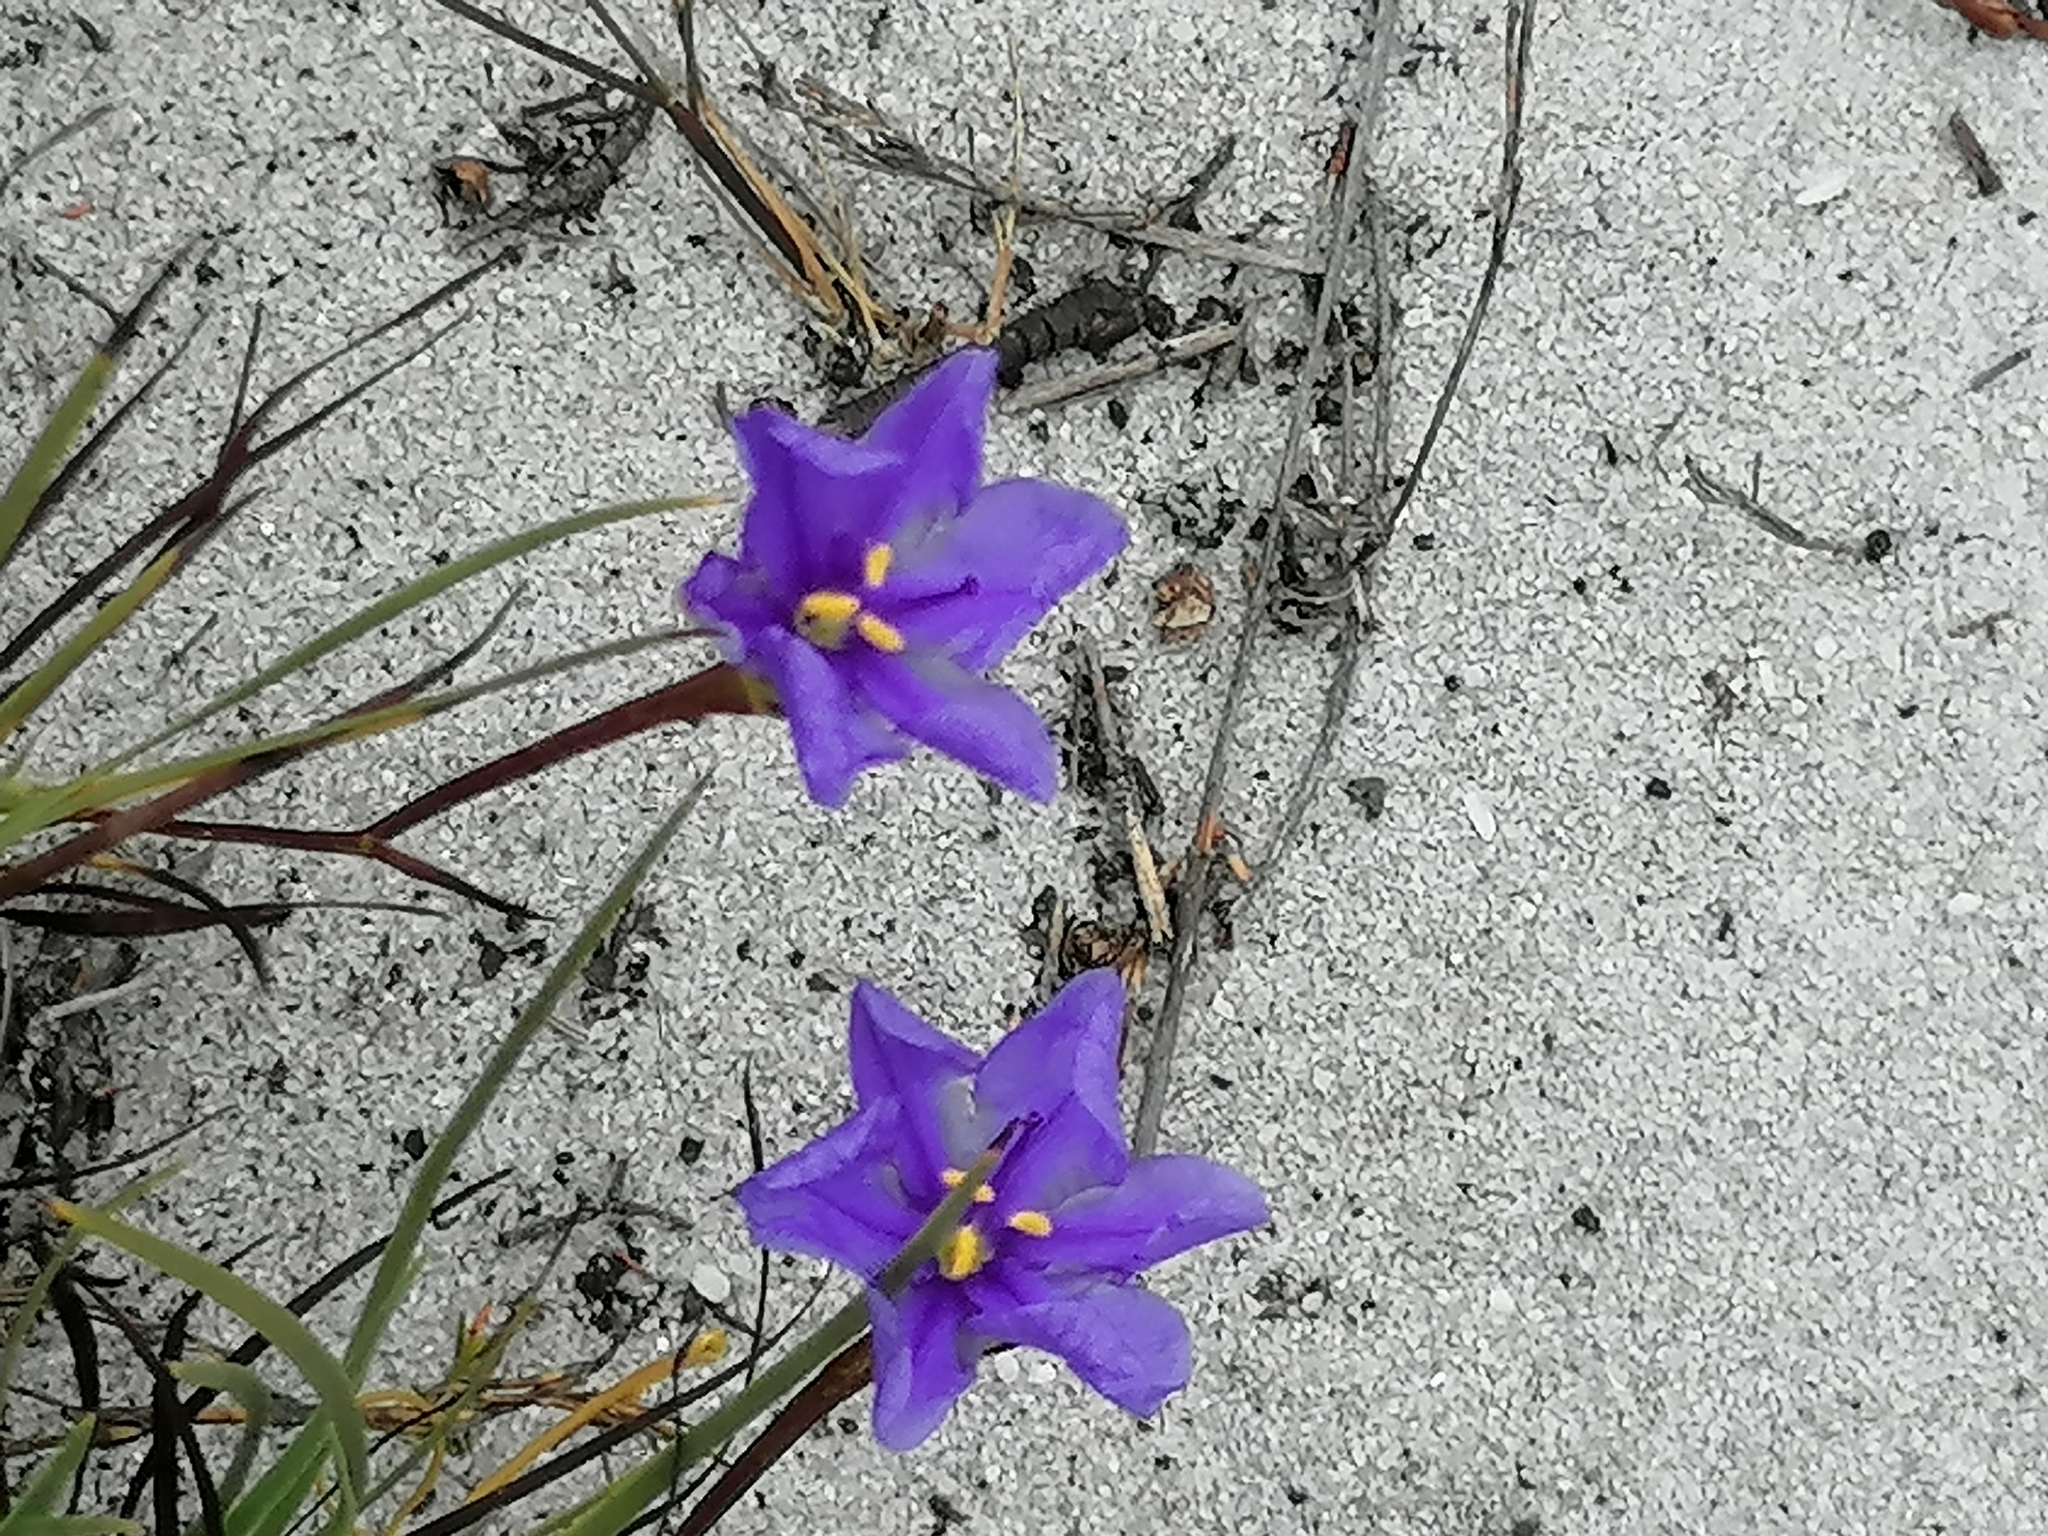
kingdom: Plantae
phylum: Tracheophyta
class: Liliopsida
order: Asparagales
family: Iridaceae
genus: Aristea
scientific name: Aristea glauca
